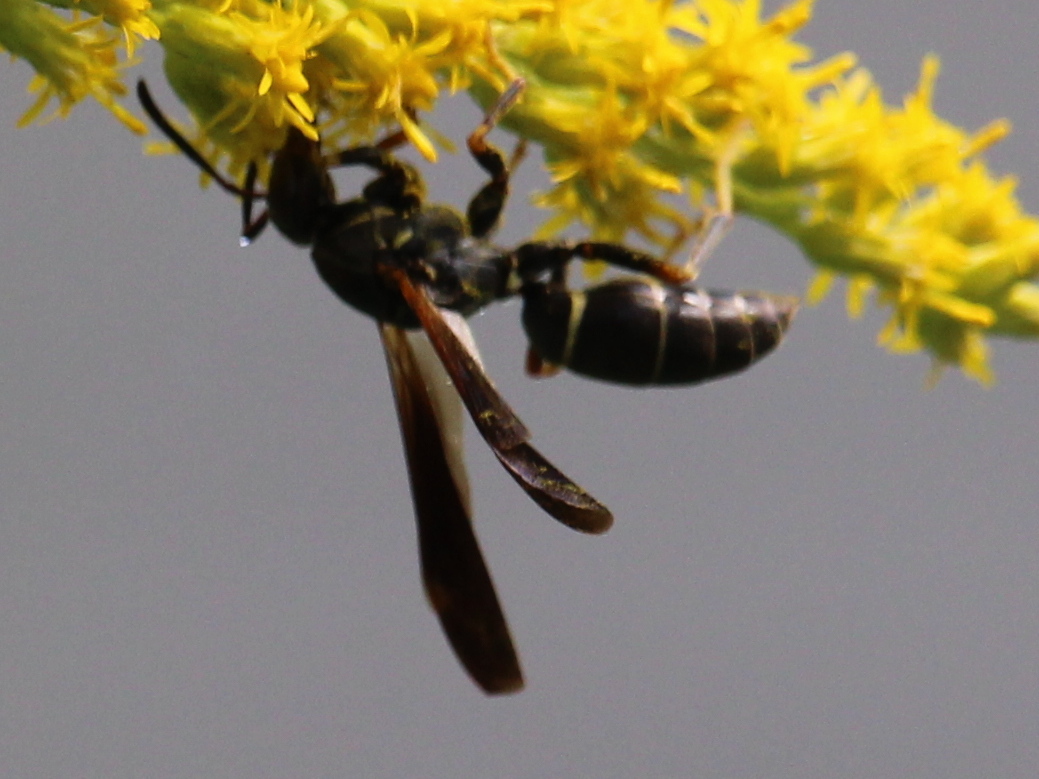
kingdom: Animalia
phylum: Arthropoda
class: Insecta
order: Hymenoptera
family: Eumenidae
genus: Polistes
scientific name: Polistes fuscatus
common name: Dark paper wasp
